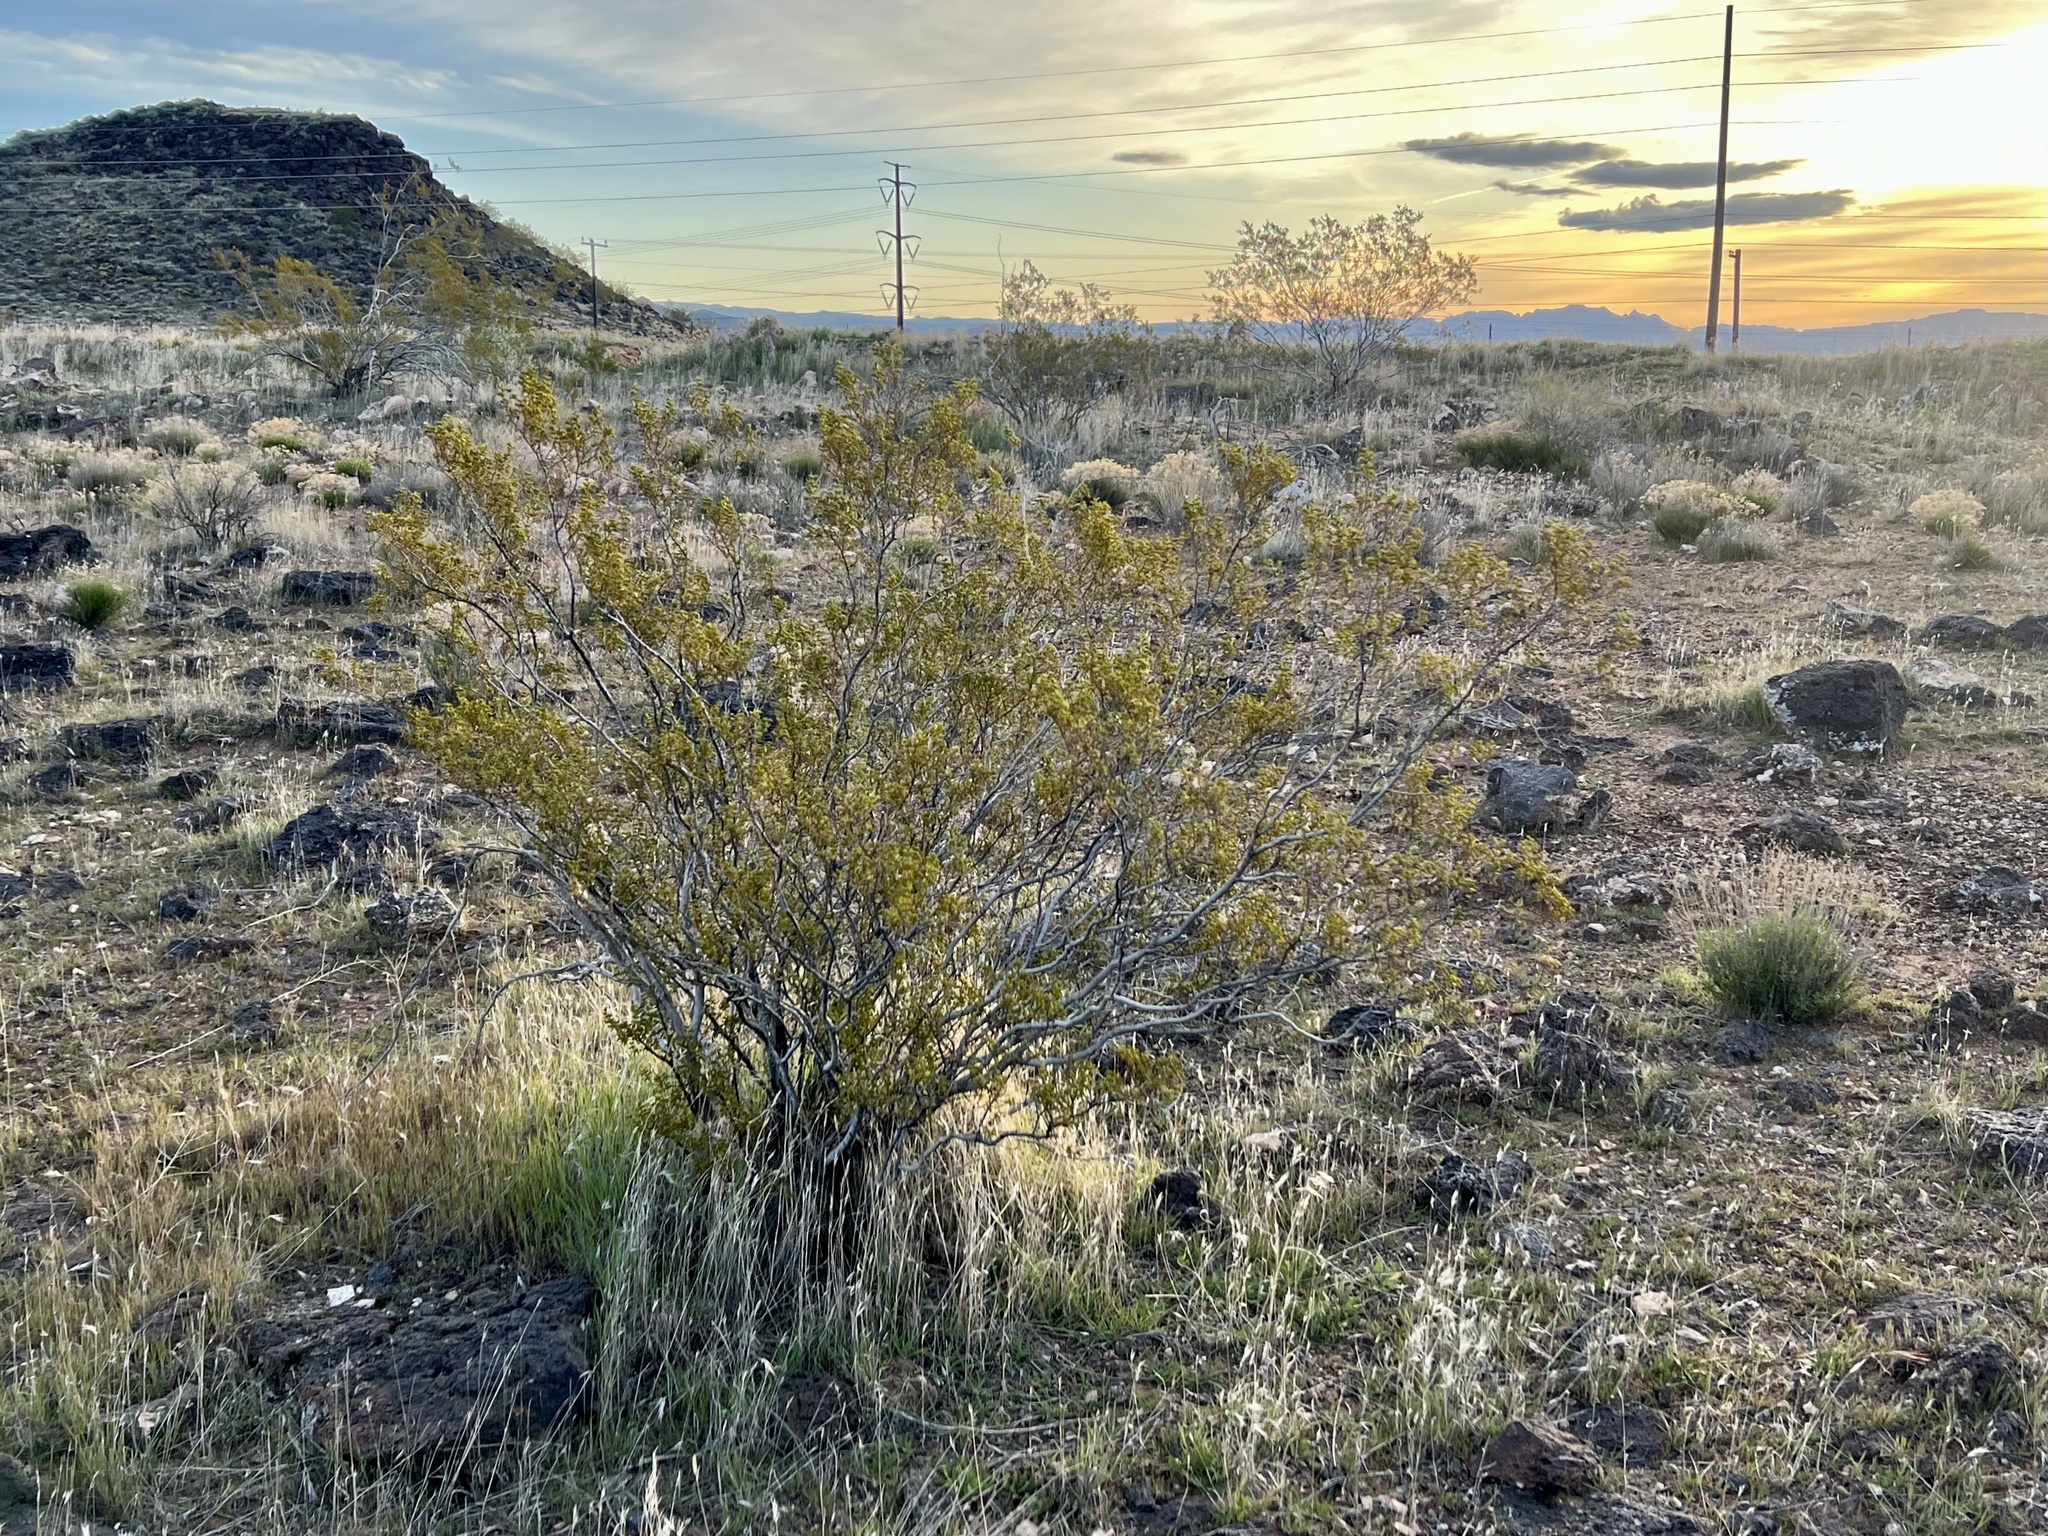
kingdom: Plantae
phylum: Tracheophyta
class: Magnoliopsida
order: Zygophyllales
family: Zygophyllaceae
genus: Larrea
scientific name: Larrea tridentata
